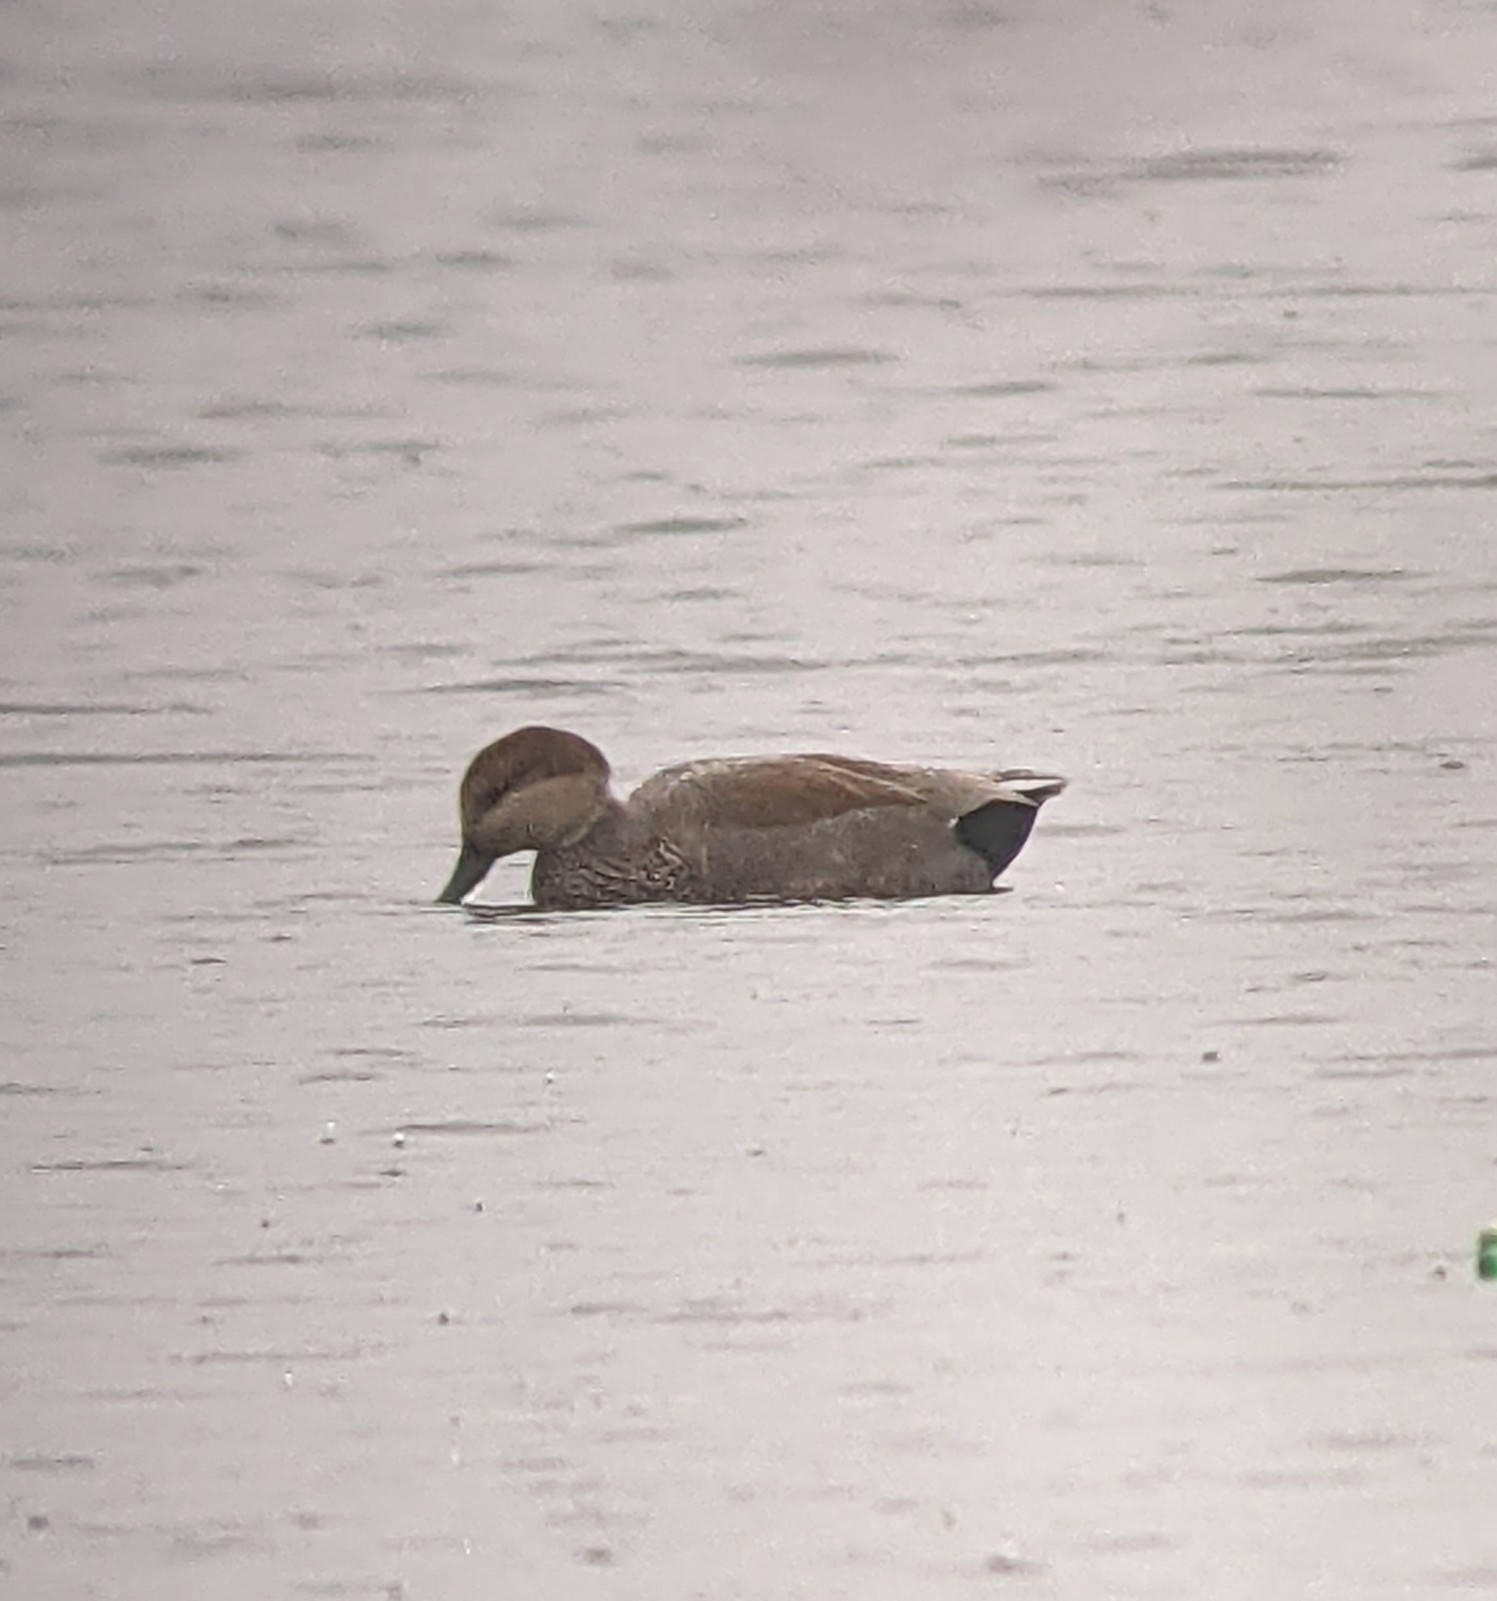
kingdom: Animalia
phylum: Chordata
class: Aves
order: Anseriformes
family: Anatidae
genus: Mareca
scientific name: Mareca strepera
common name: Gadwall
